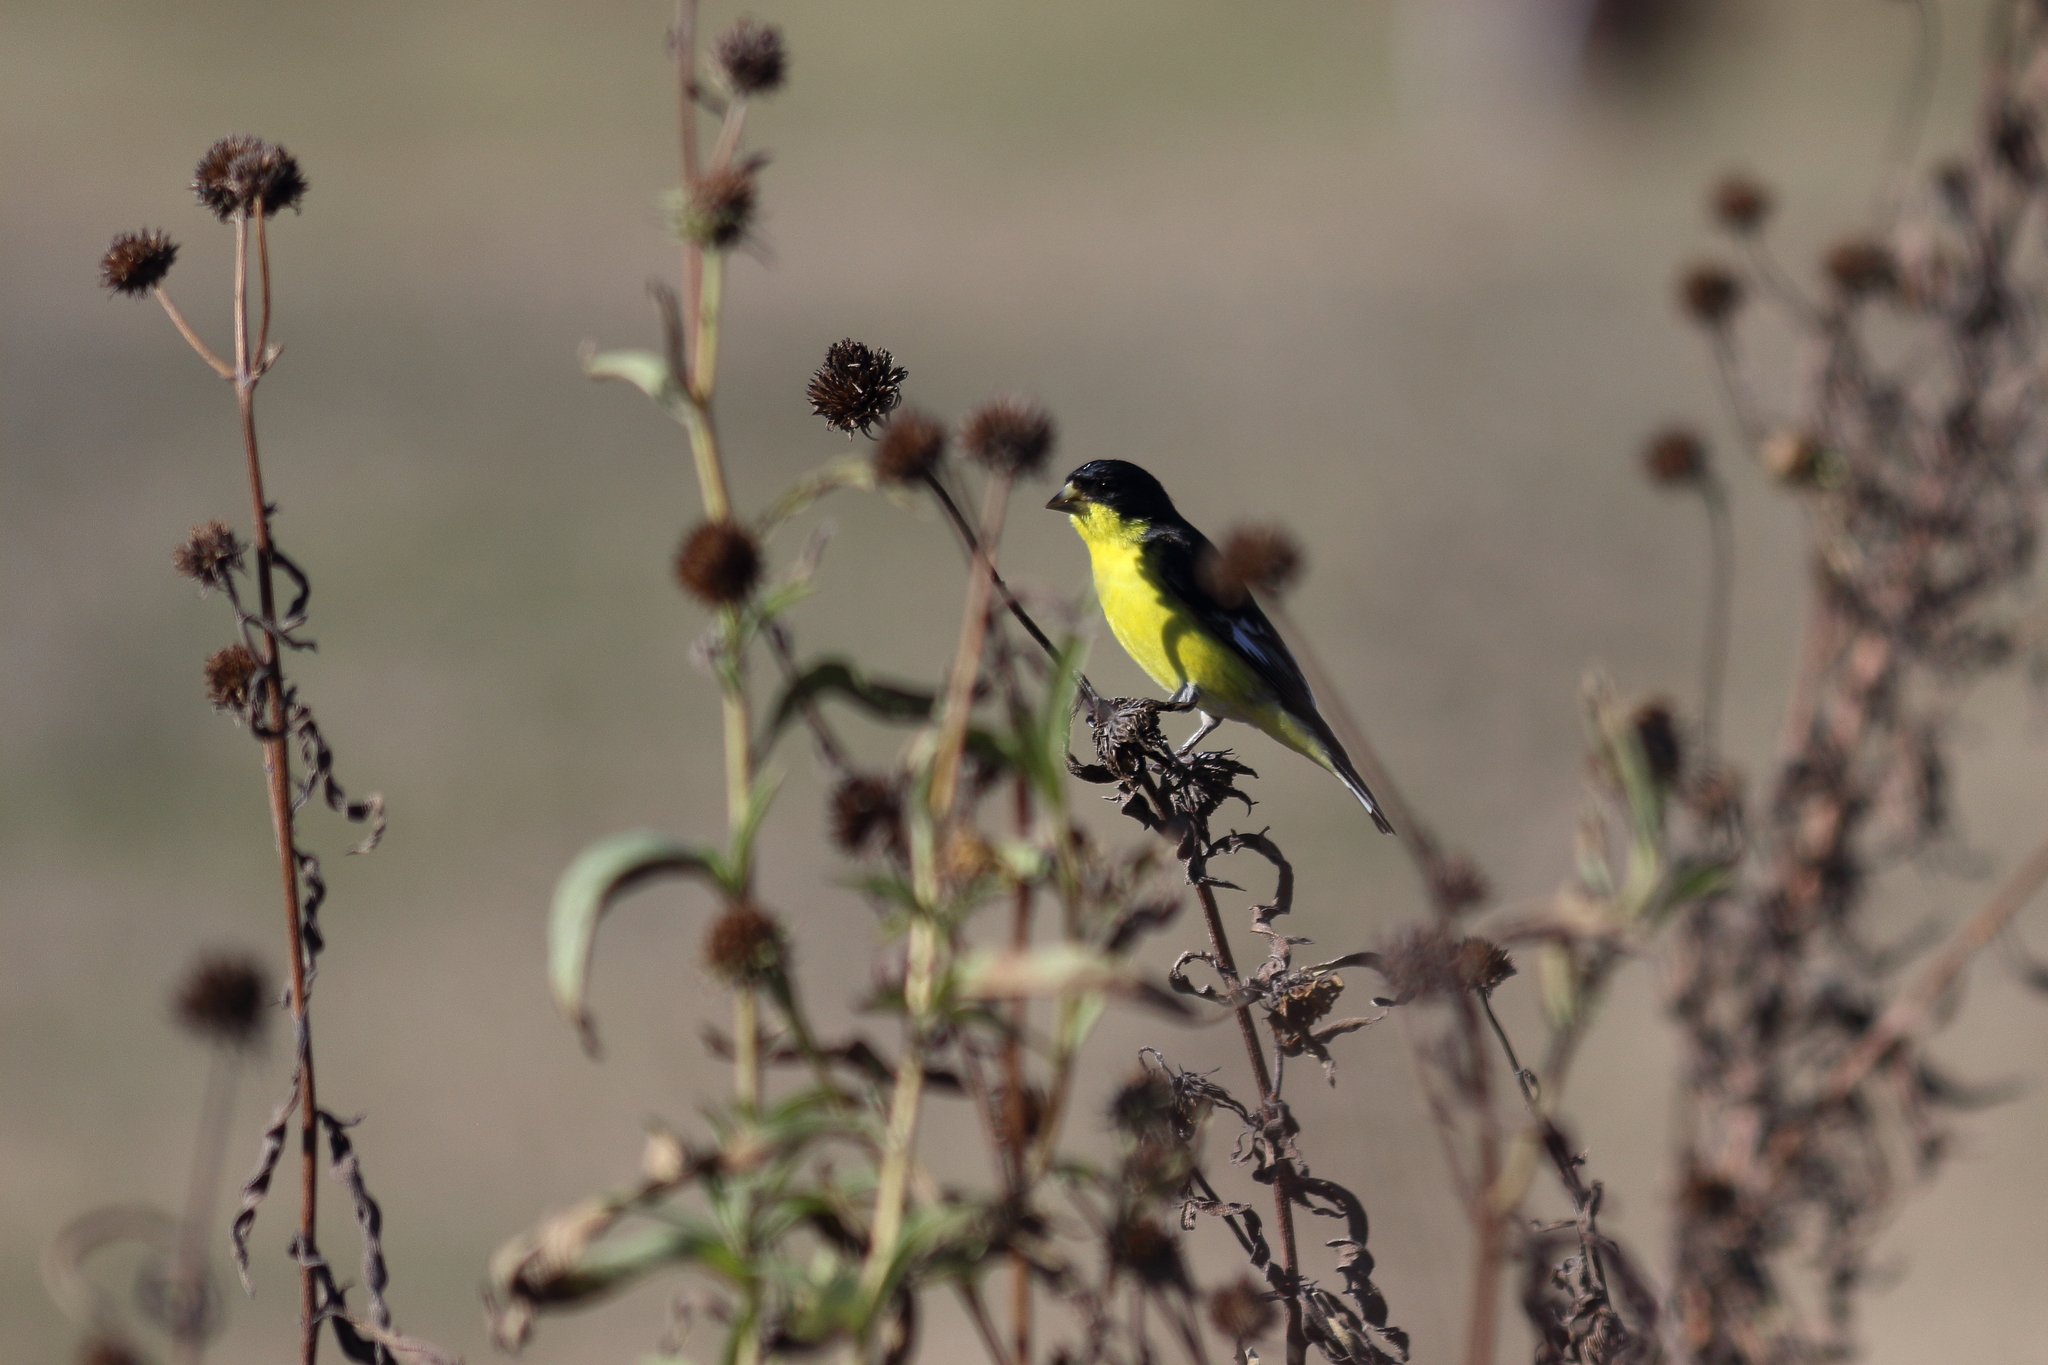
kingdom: Animalia
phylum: Chordata
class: Aves
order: Passeriformes
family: Fringillidae
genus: Spinus
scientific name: Spinus psaltria
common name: Lesser goldfinch
